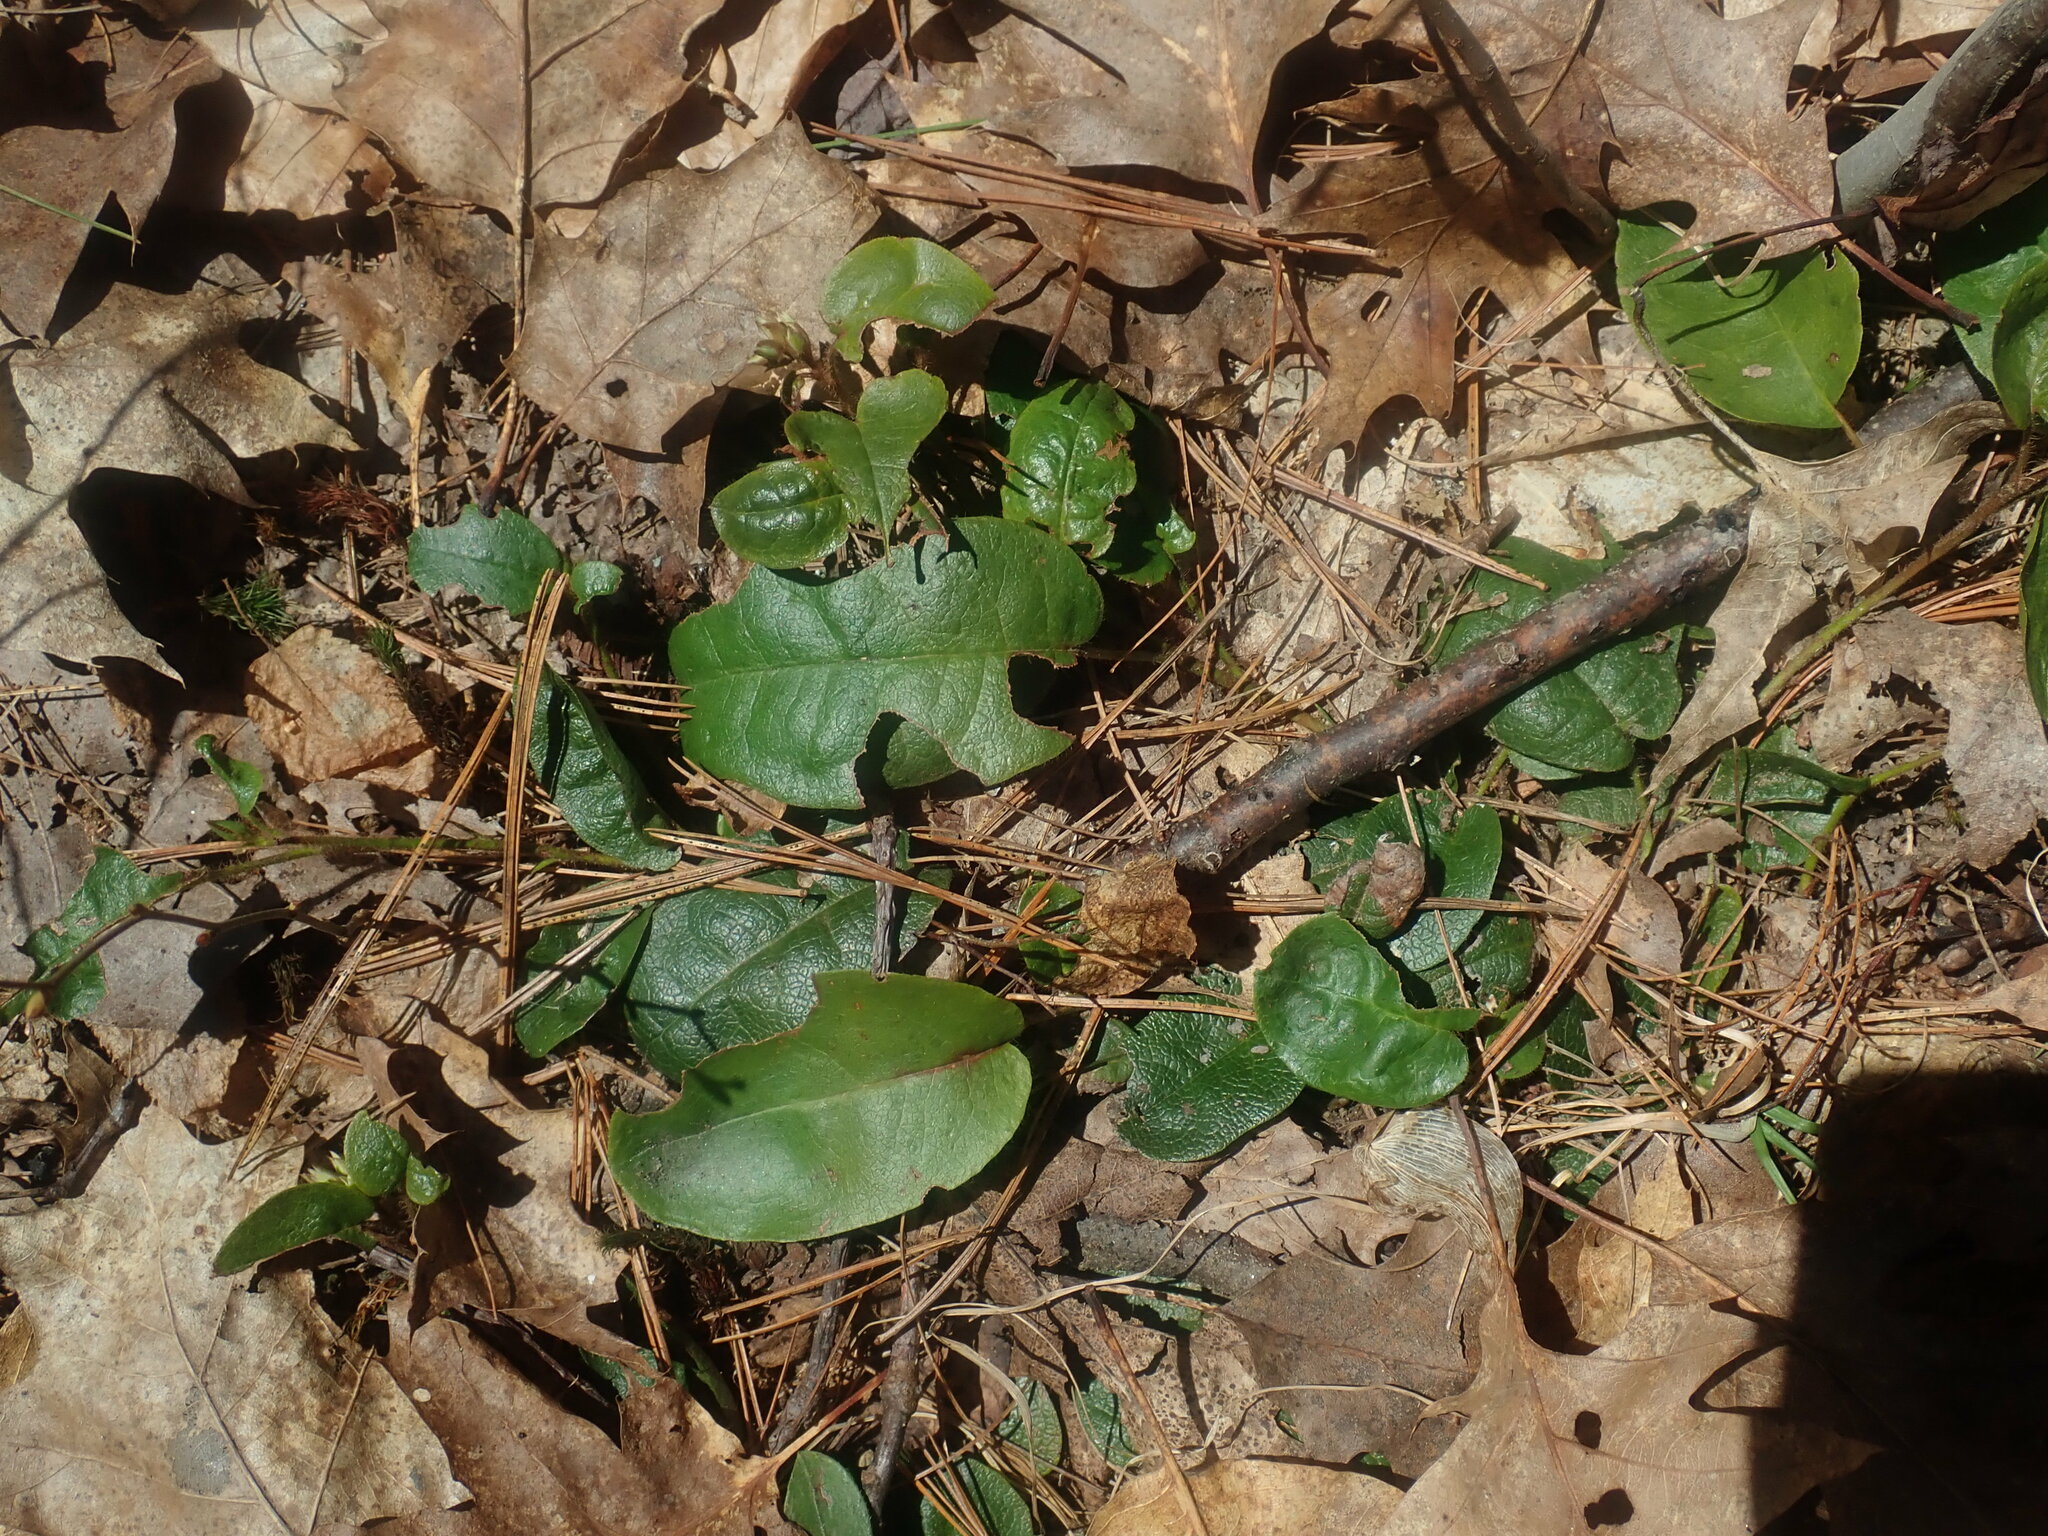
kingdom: Plantae
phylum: Tracheophyta
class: Magnoliopsida
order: Ericales
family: Ericaceae
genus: Epigaea
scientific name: Epigaea repens
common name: Gravelroot
